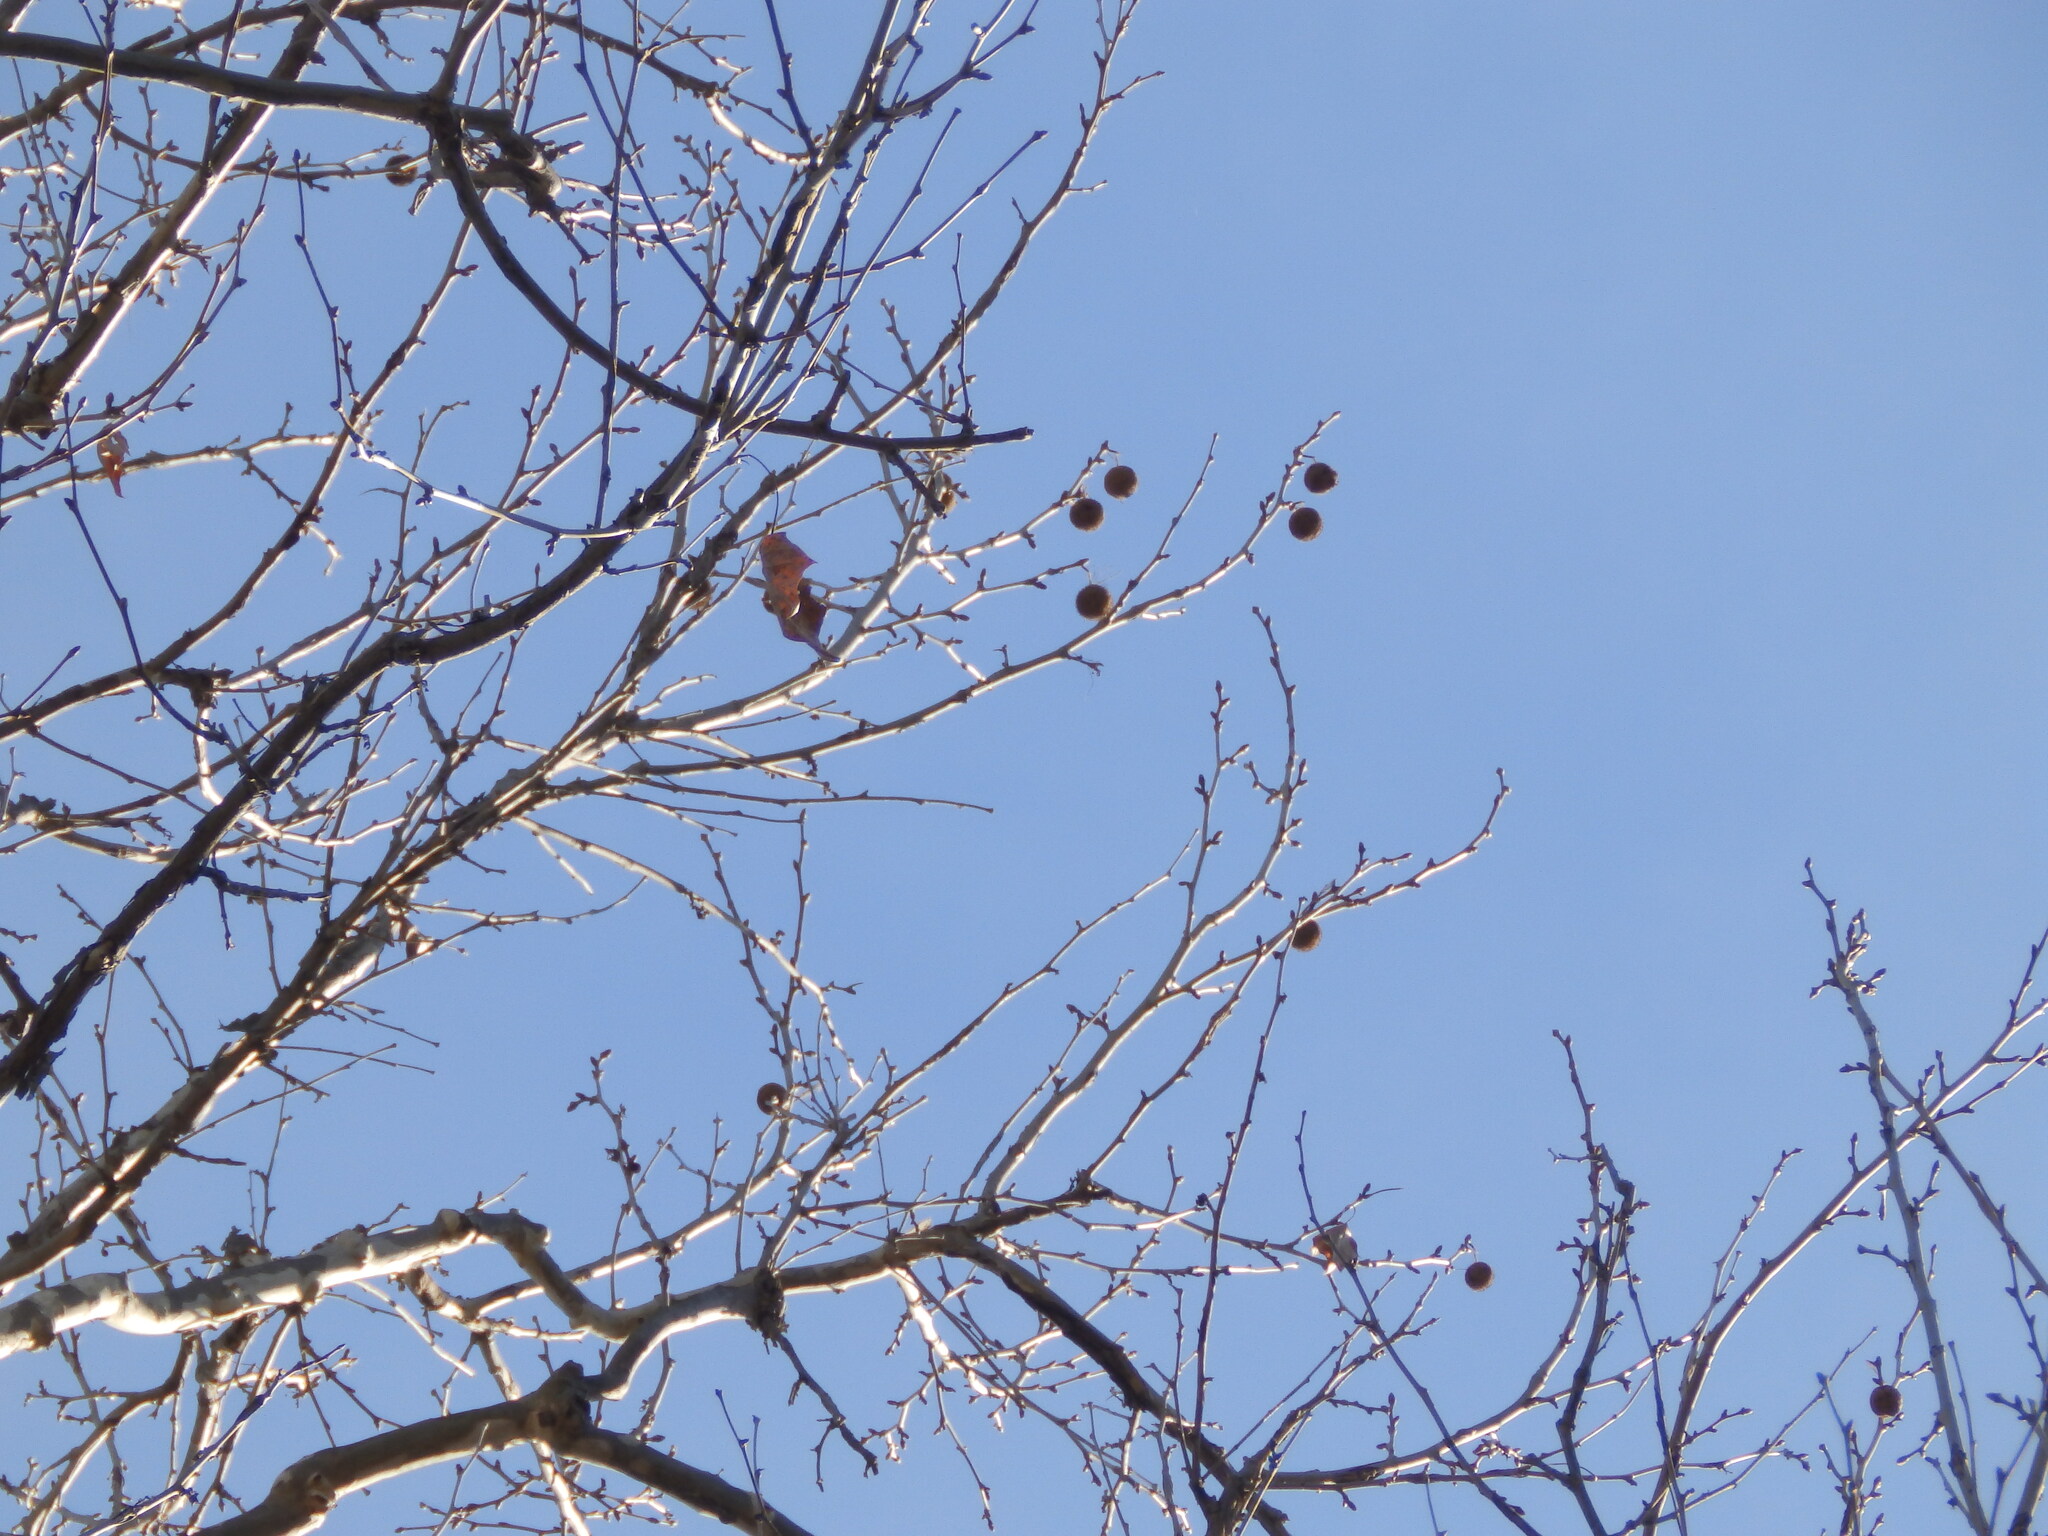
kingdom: Plantae
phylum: Tracheophyta
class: Magnoliopsida
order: Proteales
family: Platanaceae
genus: Platanus
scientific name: Platanus occidentalis
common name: American sycamore
